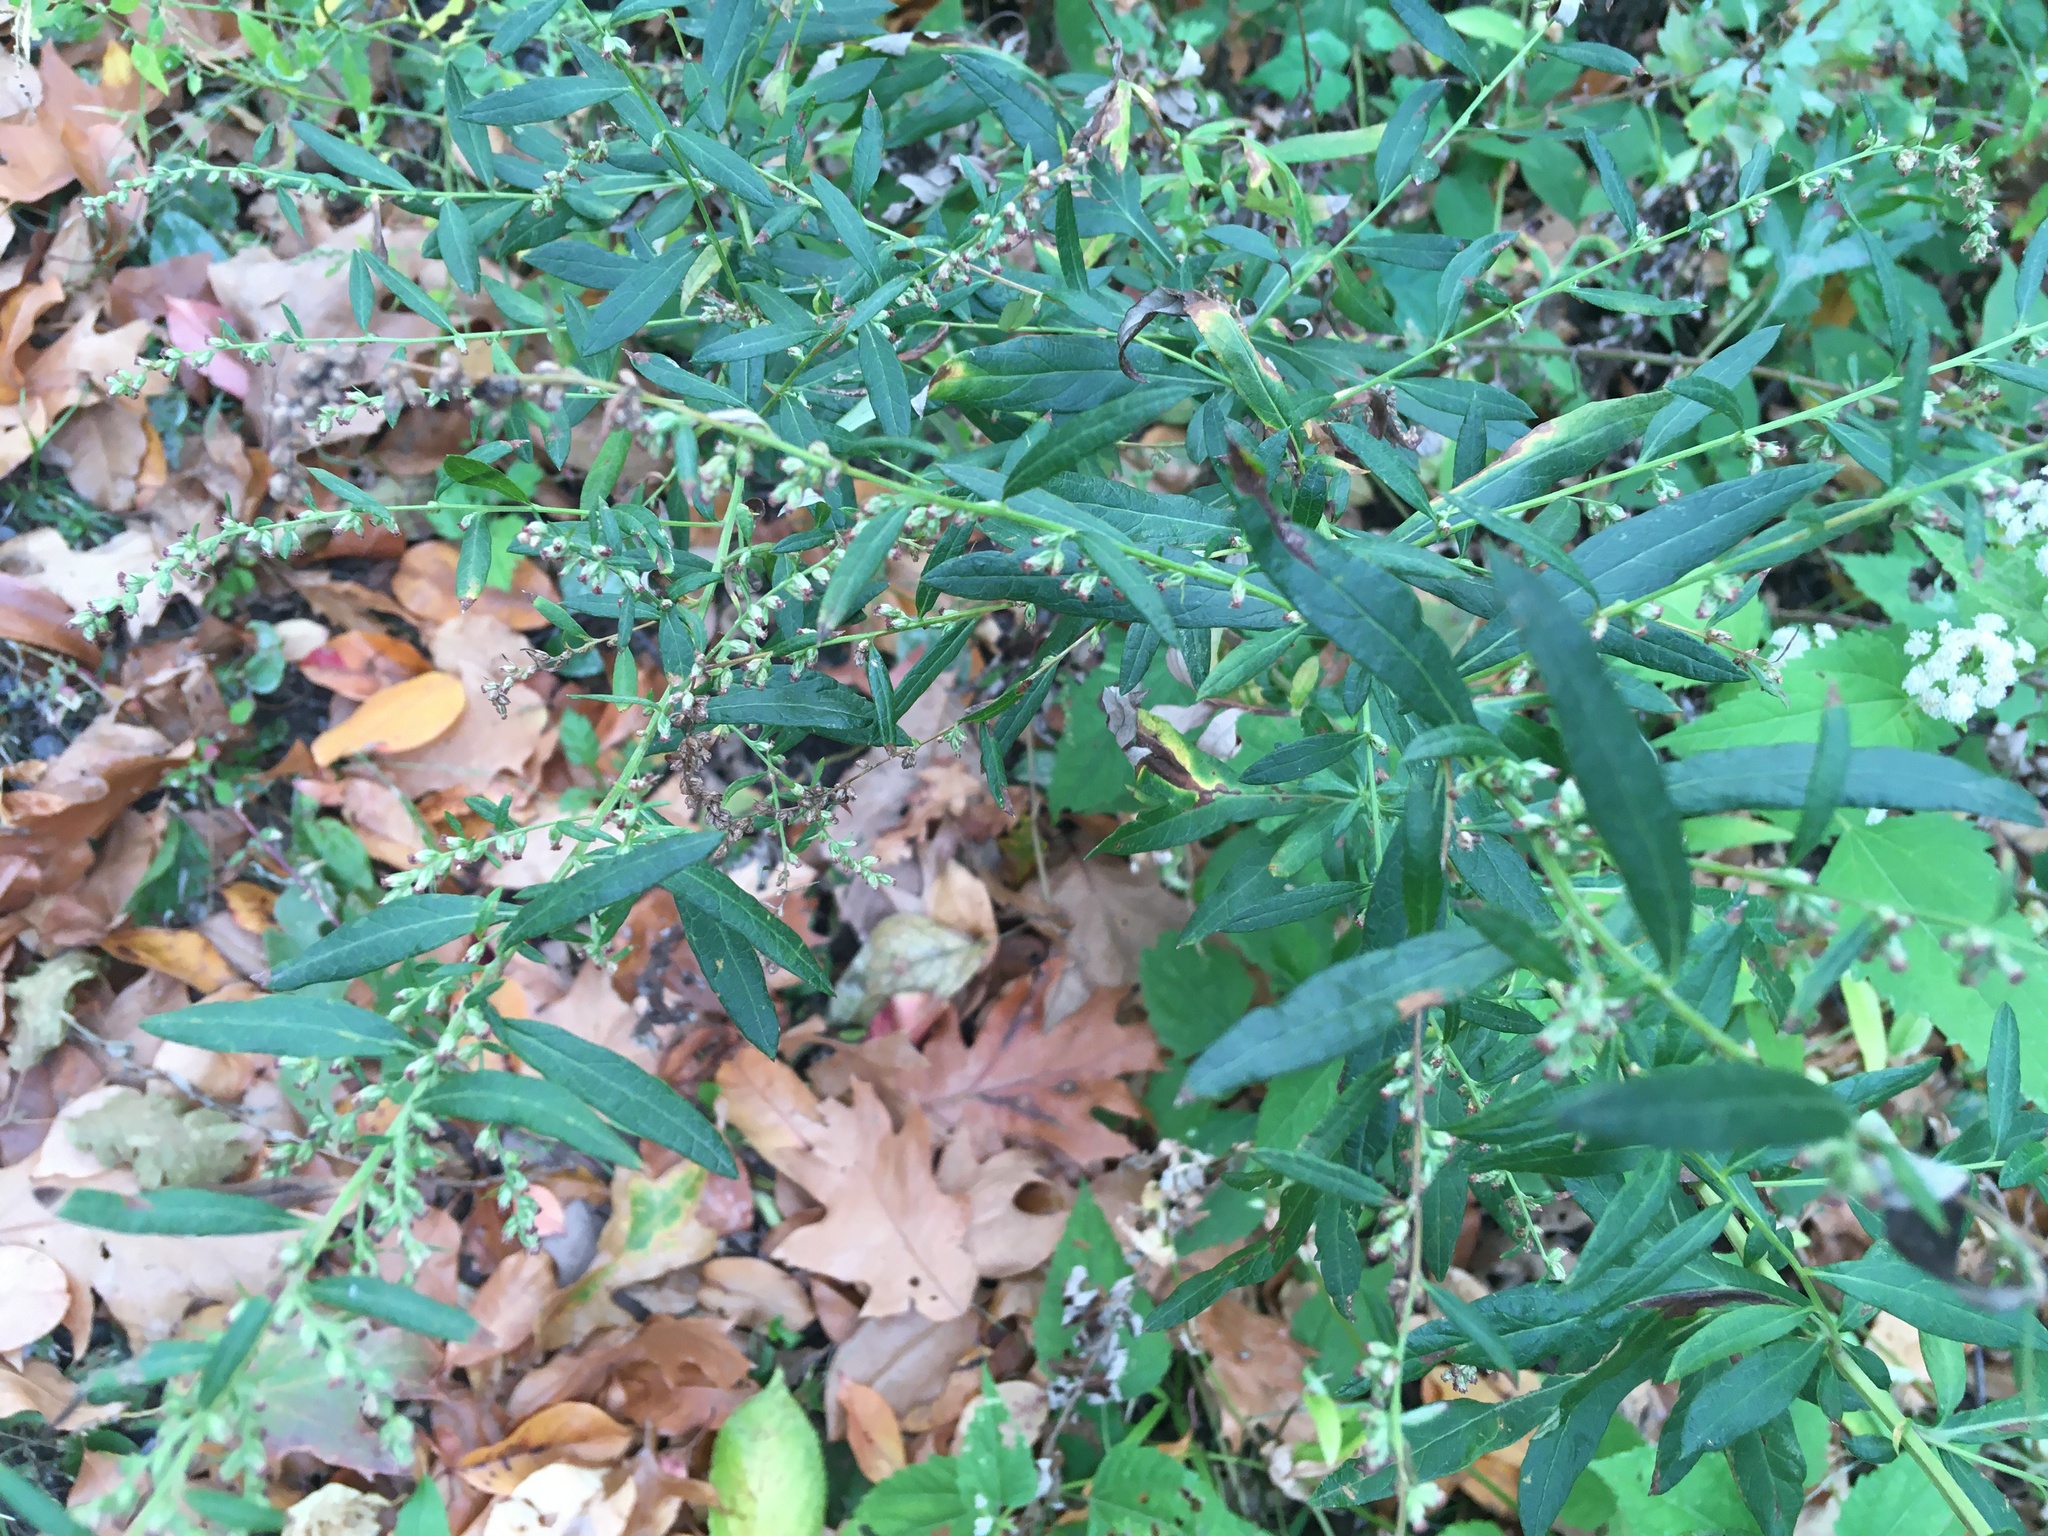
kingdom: Plantae
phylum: Tracheophyta
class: Magnoliopsida
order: Asterales
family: Asteraceae
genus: Artemisia
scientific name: Artemisia vulgaris
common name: Mugwort
